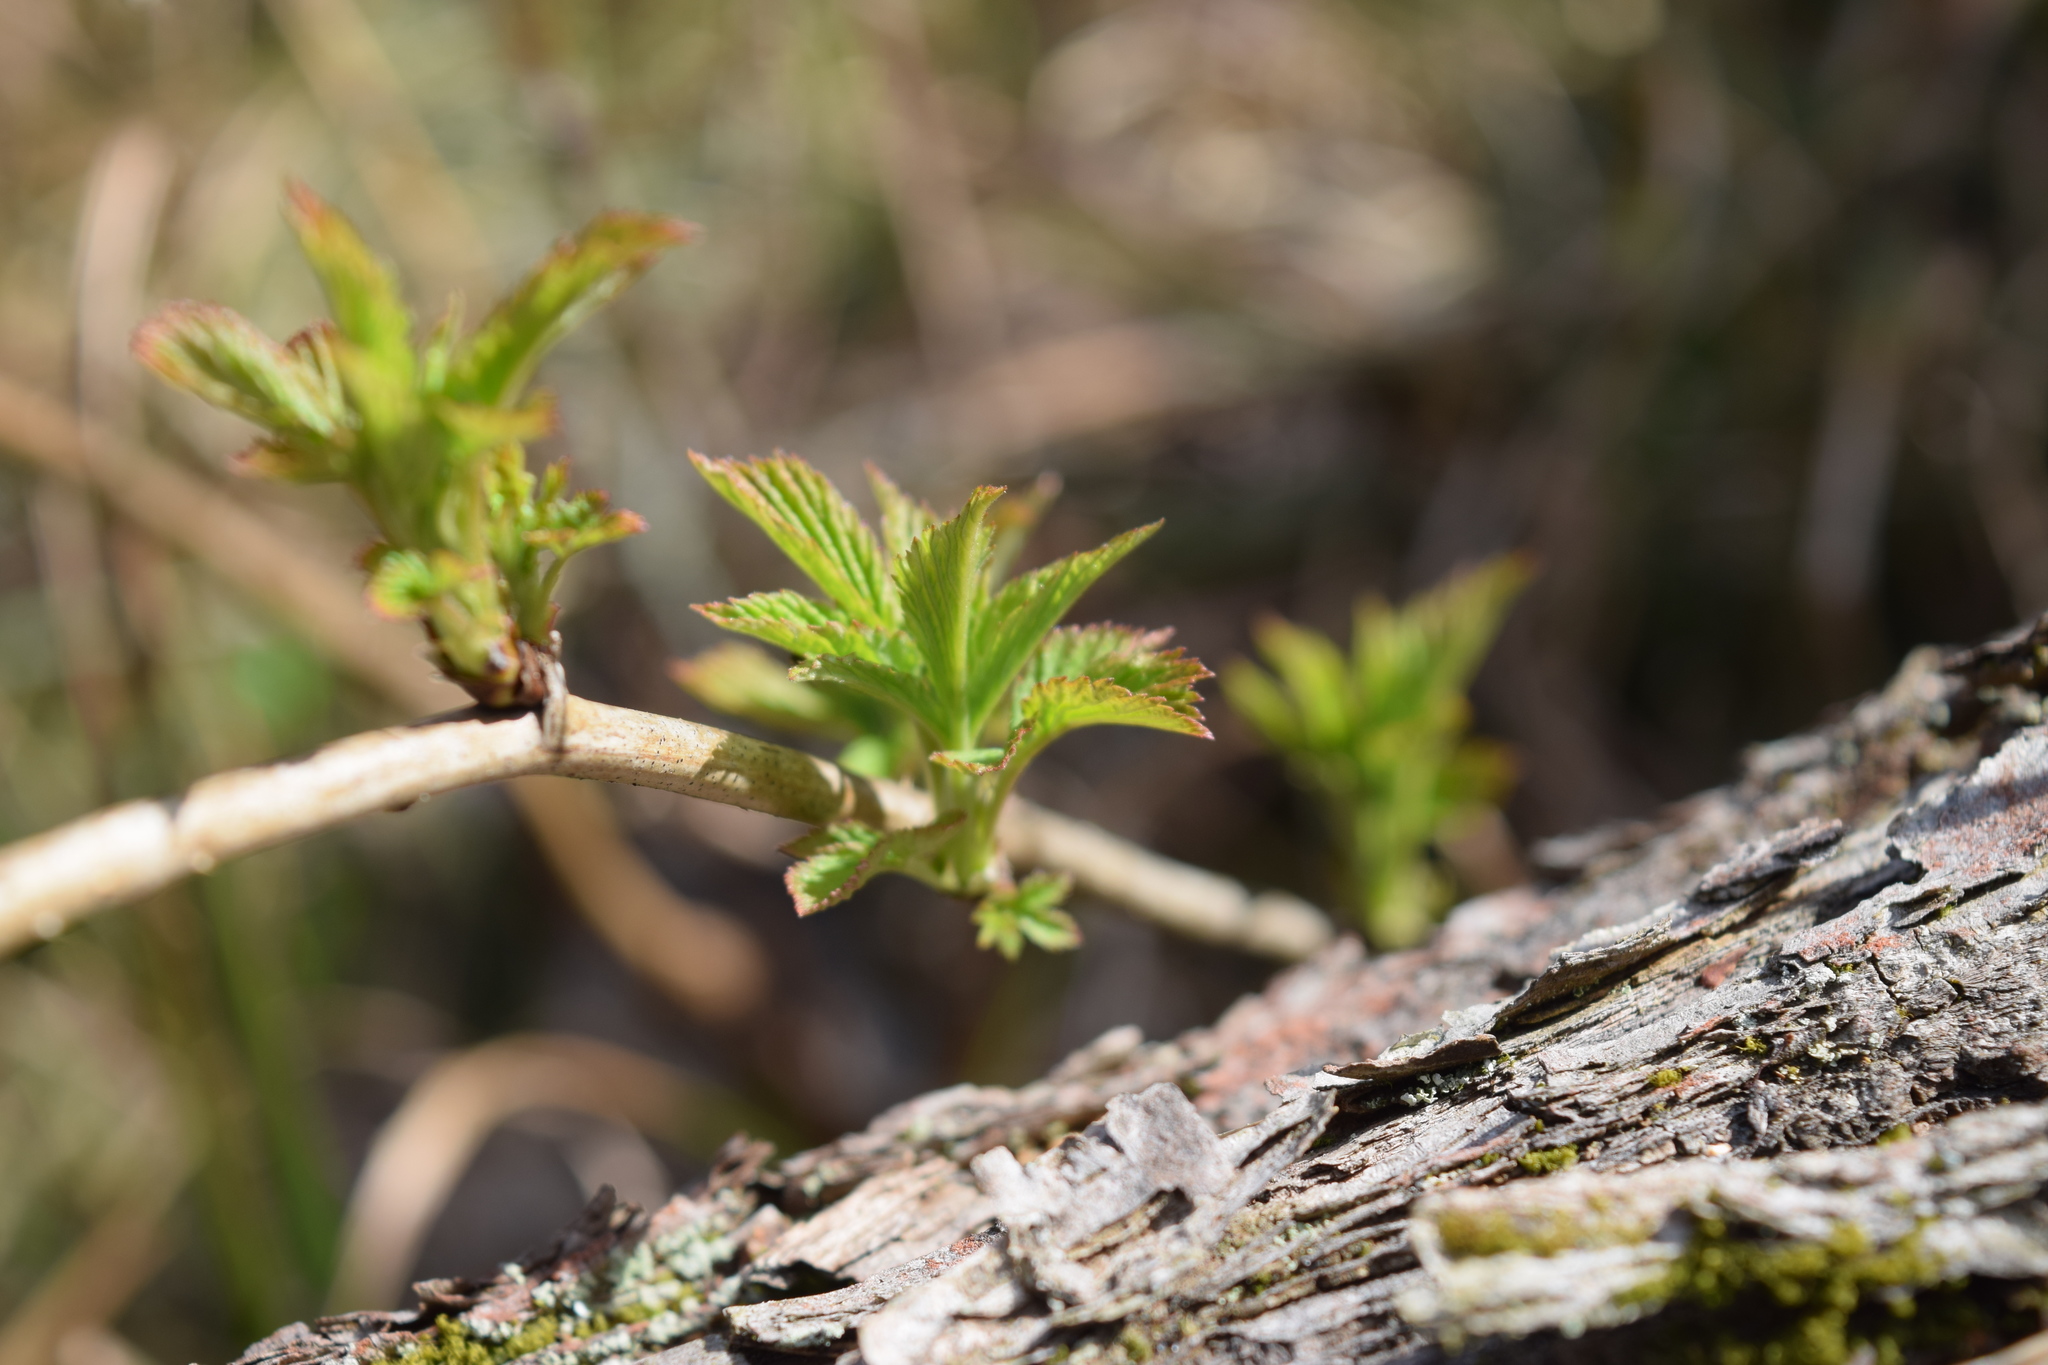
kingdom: Plantae
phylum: Tracheophyta
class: Magnoliopsida
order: Rosales
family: Rosaceae
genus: Rubus
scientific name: Rubus idaeus
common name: Raspberry
